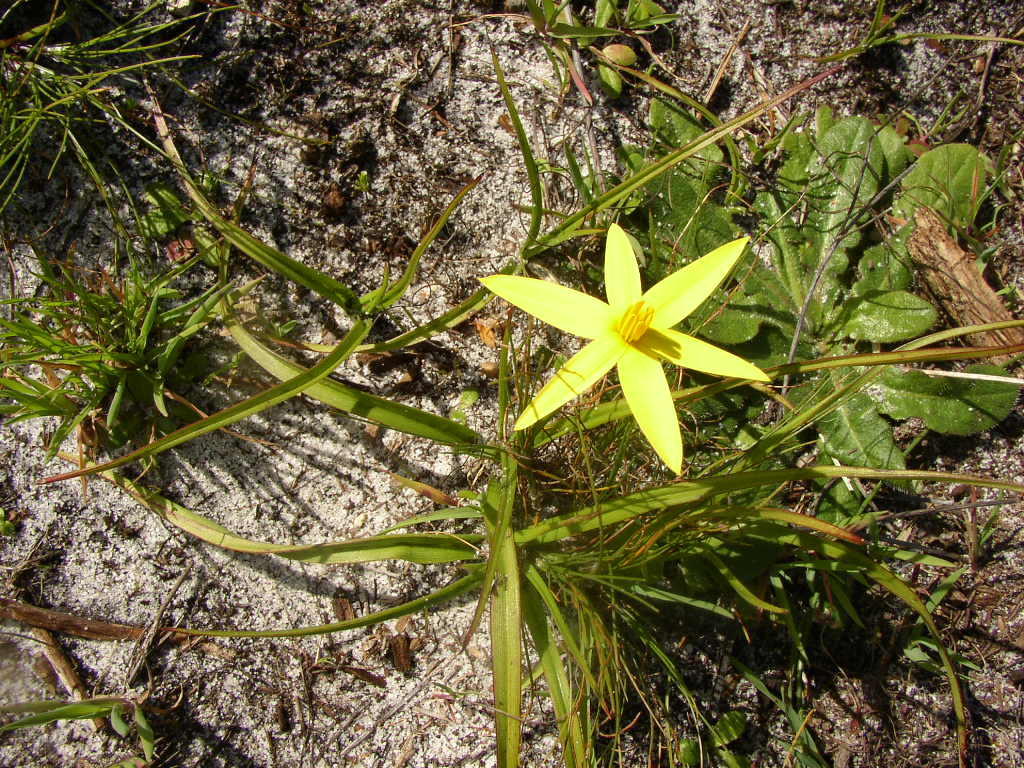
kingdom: Plantae
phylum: Tracheophyta
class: Liliopsida
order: Asparagales
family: Hypoxidaceae
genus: Pauridia
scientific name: Pauridia capensis
